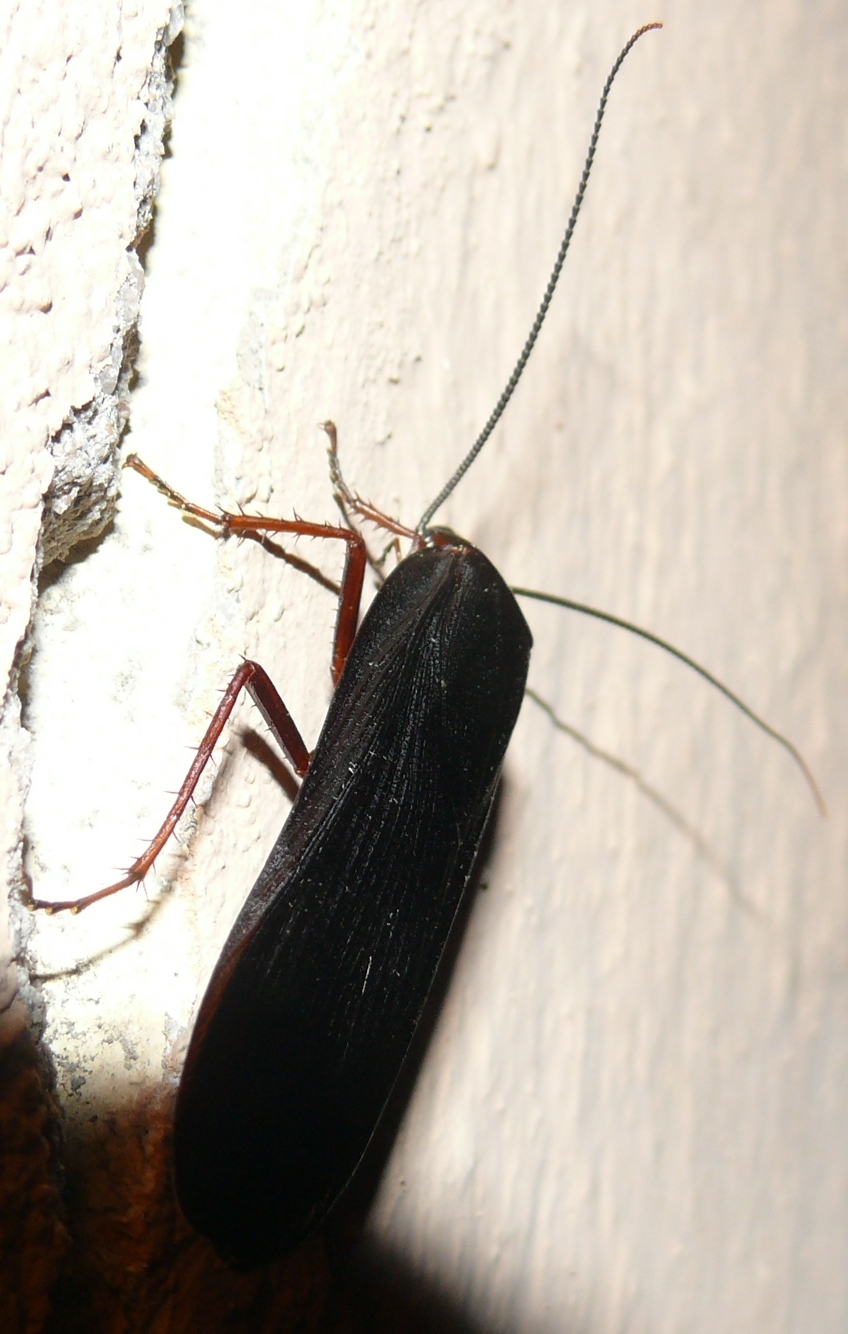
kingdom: Animalia
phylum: Arthropoda
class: Insecta
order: Blattodea
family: Blattidae
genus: Deropeltis
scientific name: Deropeltis erythrocephala
